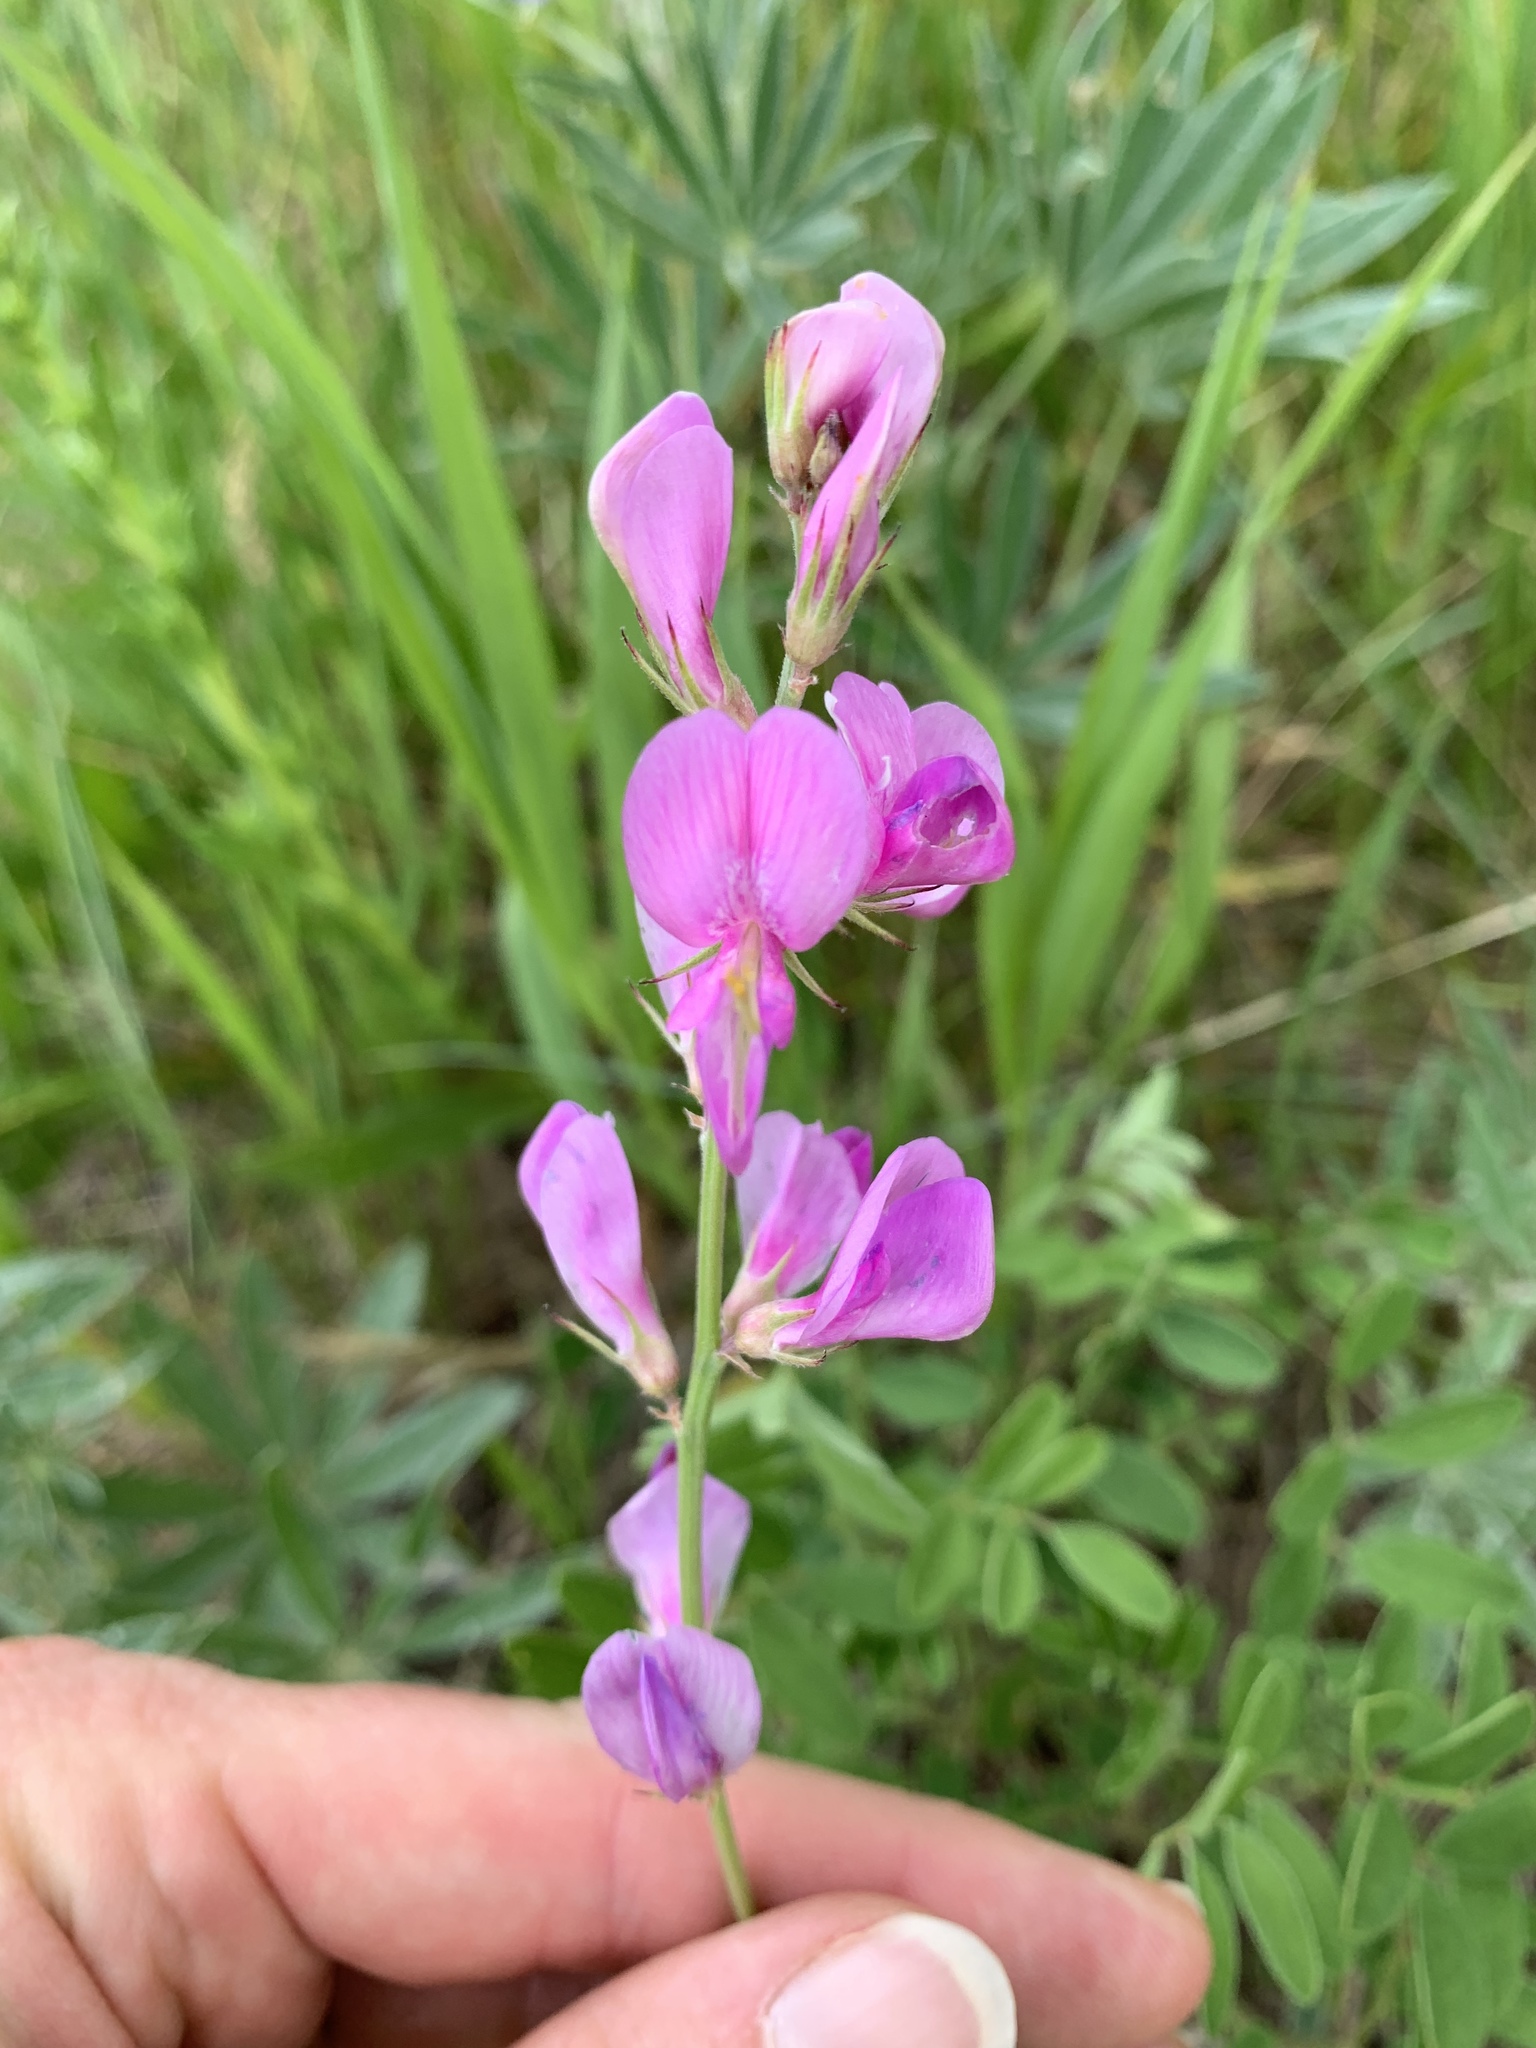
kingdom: Plantae
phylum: Tracheophyta
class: Magnoliopsida
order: Fabales
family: Fabaceae
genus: Hedysarum
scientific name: Hedysarum boreale
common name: Northern sweet-vetch
